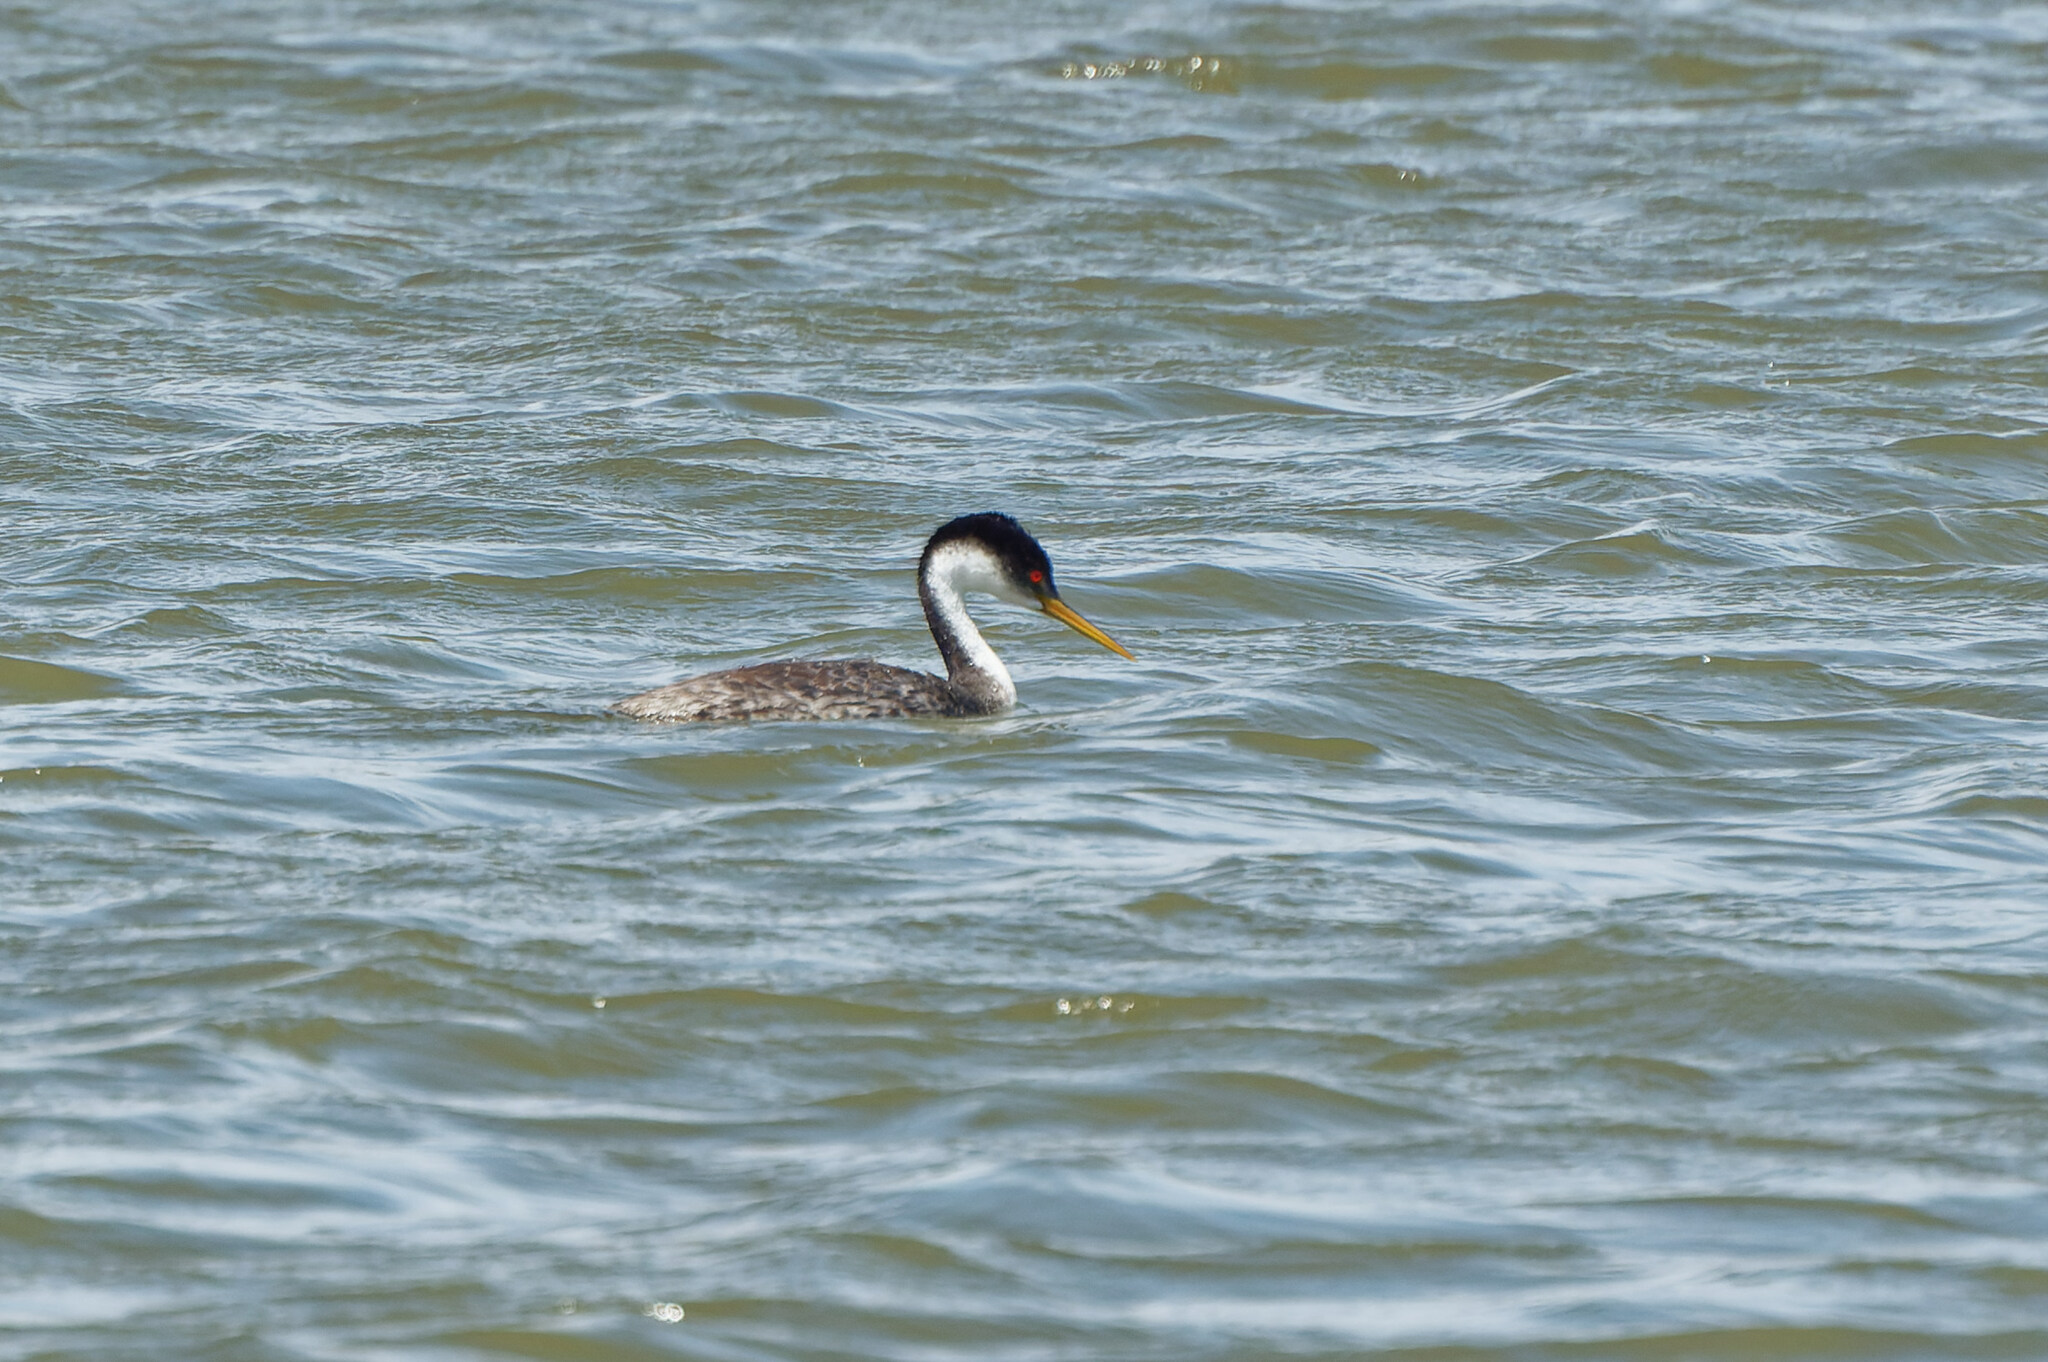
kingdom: Animalia
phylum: Chordata
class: Aves
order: Podicipediformes
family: Podicipedidae
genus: Aechmophorus
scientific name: Aechmophorus occidentalis
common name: Western grebe
